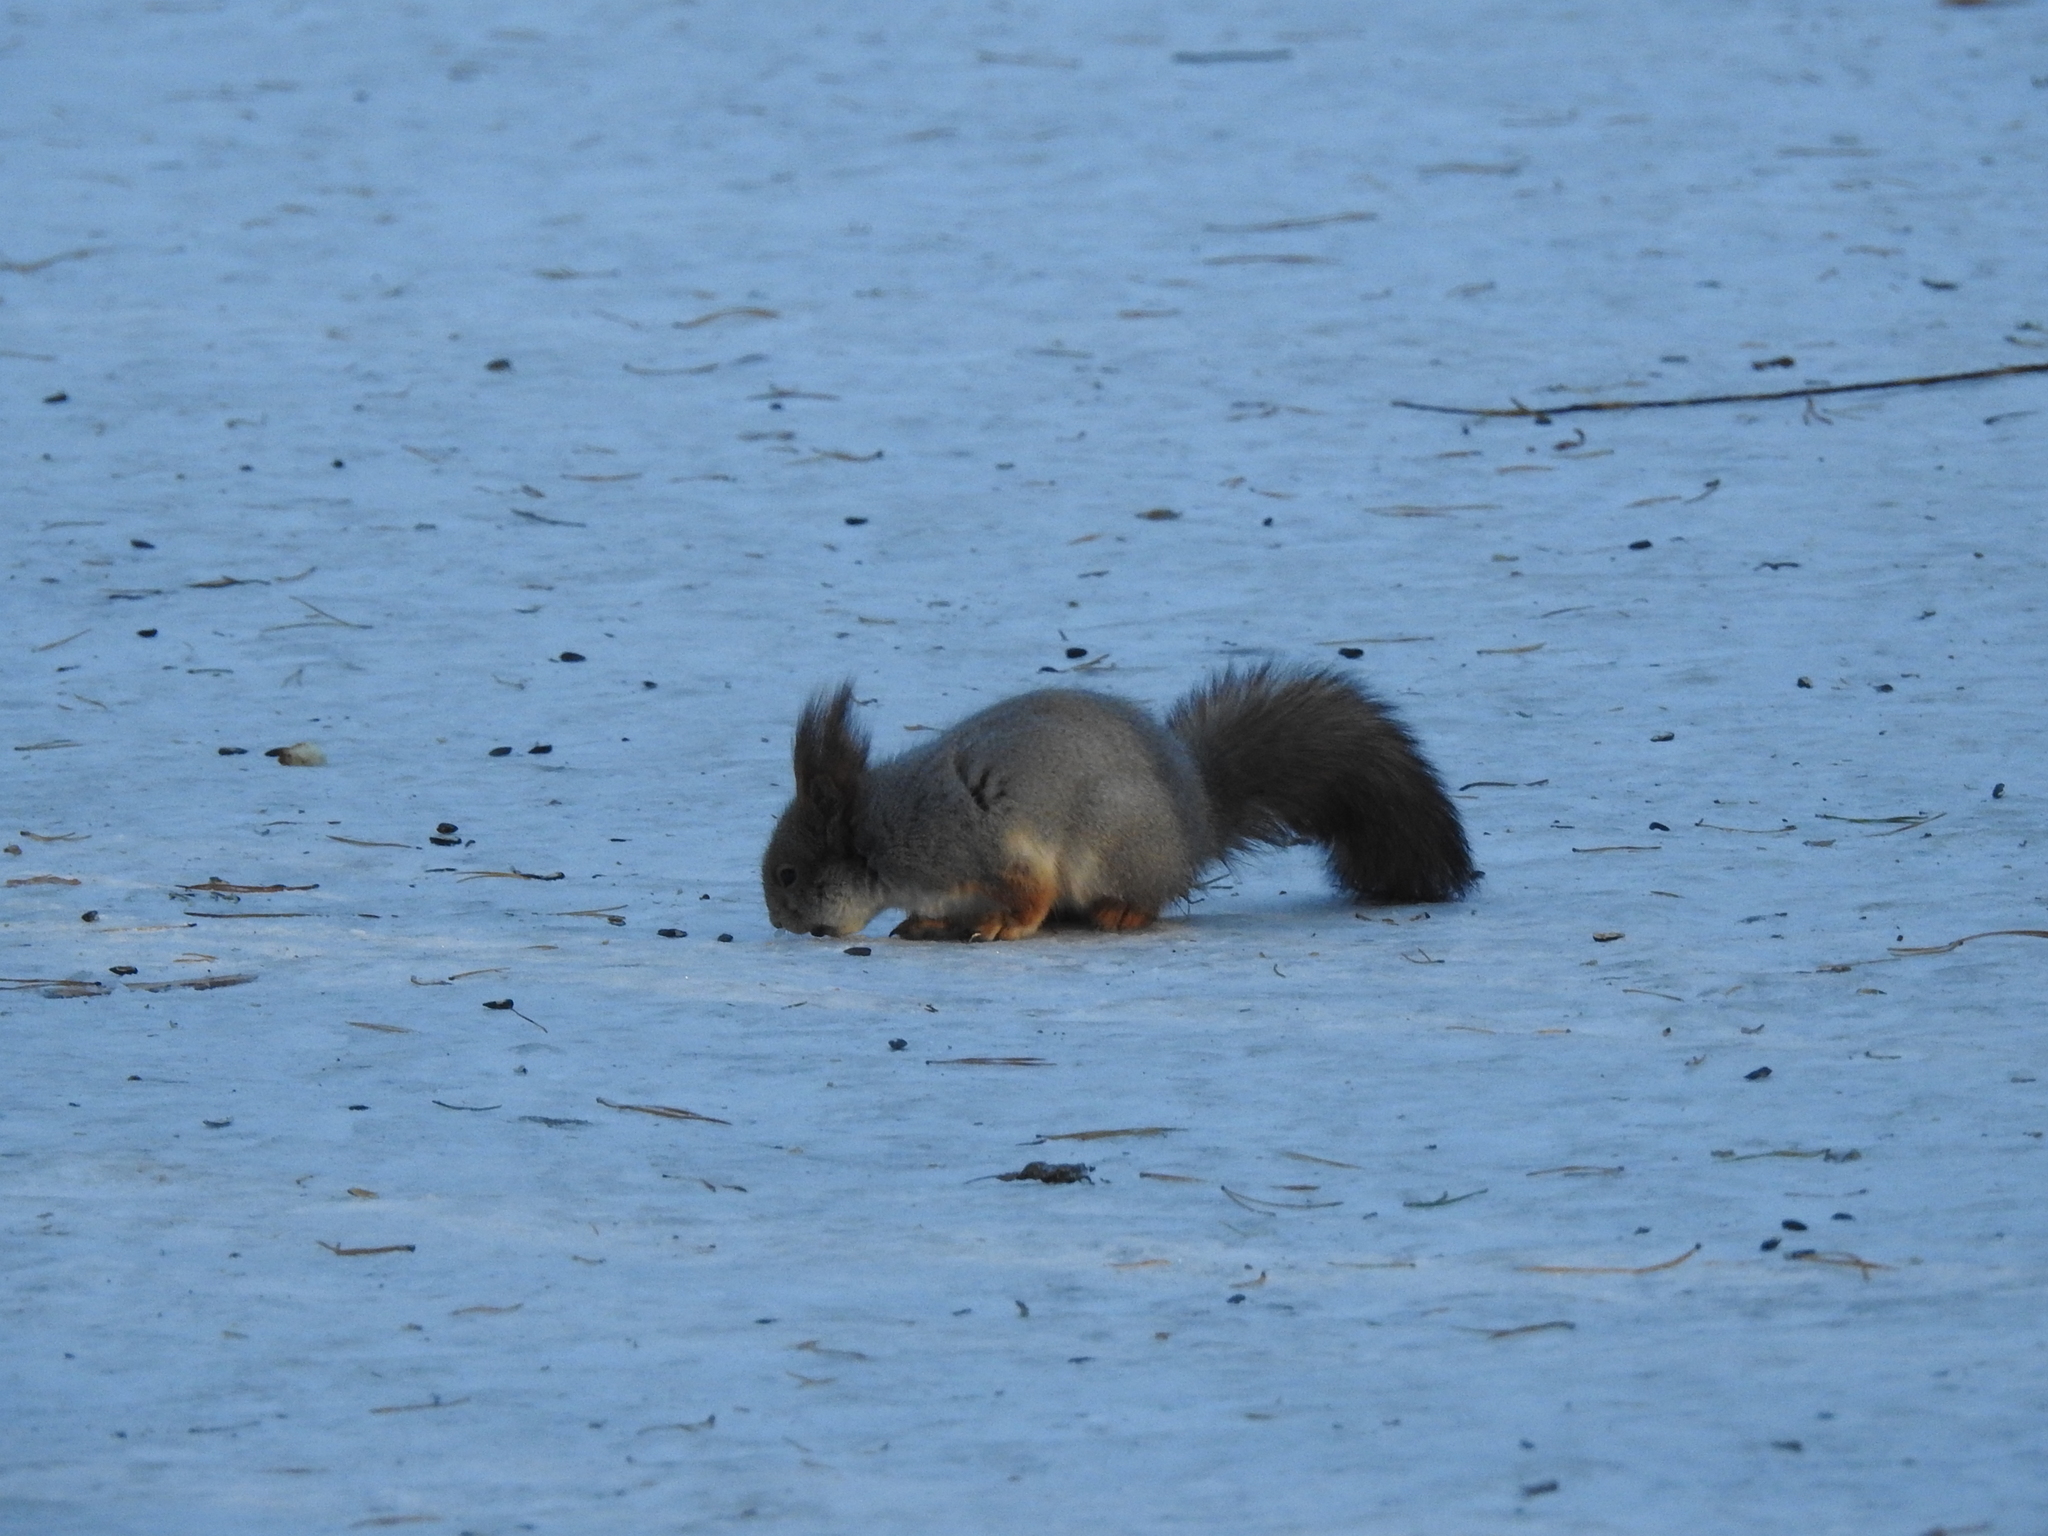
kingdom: Animalia
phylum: Chordata
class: Mammalia
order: Rodentia
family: Sciuridae
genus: Sciurus
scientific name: Sciurus vulgaris
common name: Eurasian red squirrel
